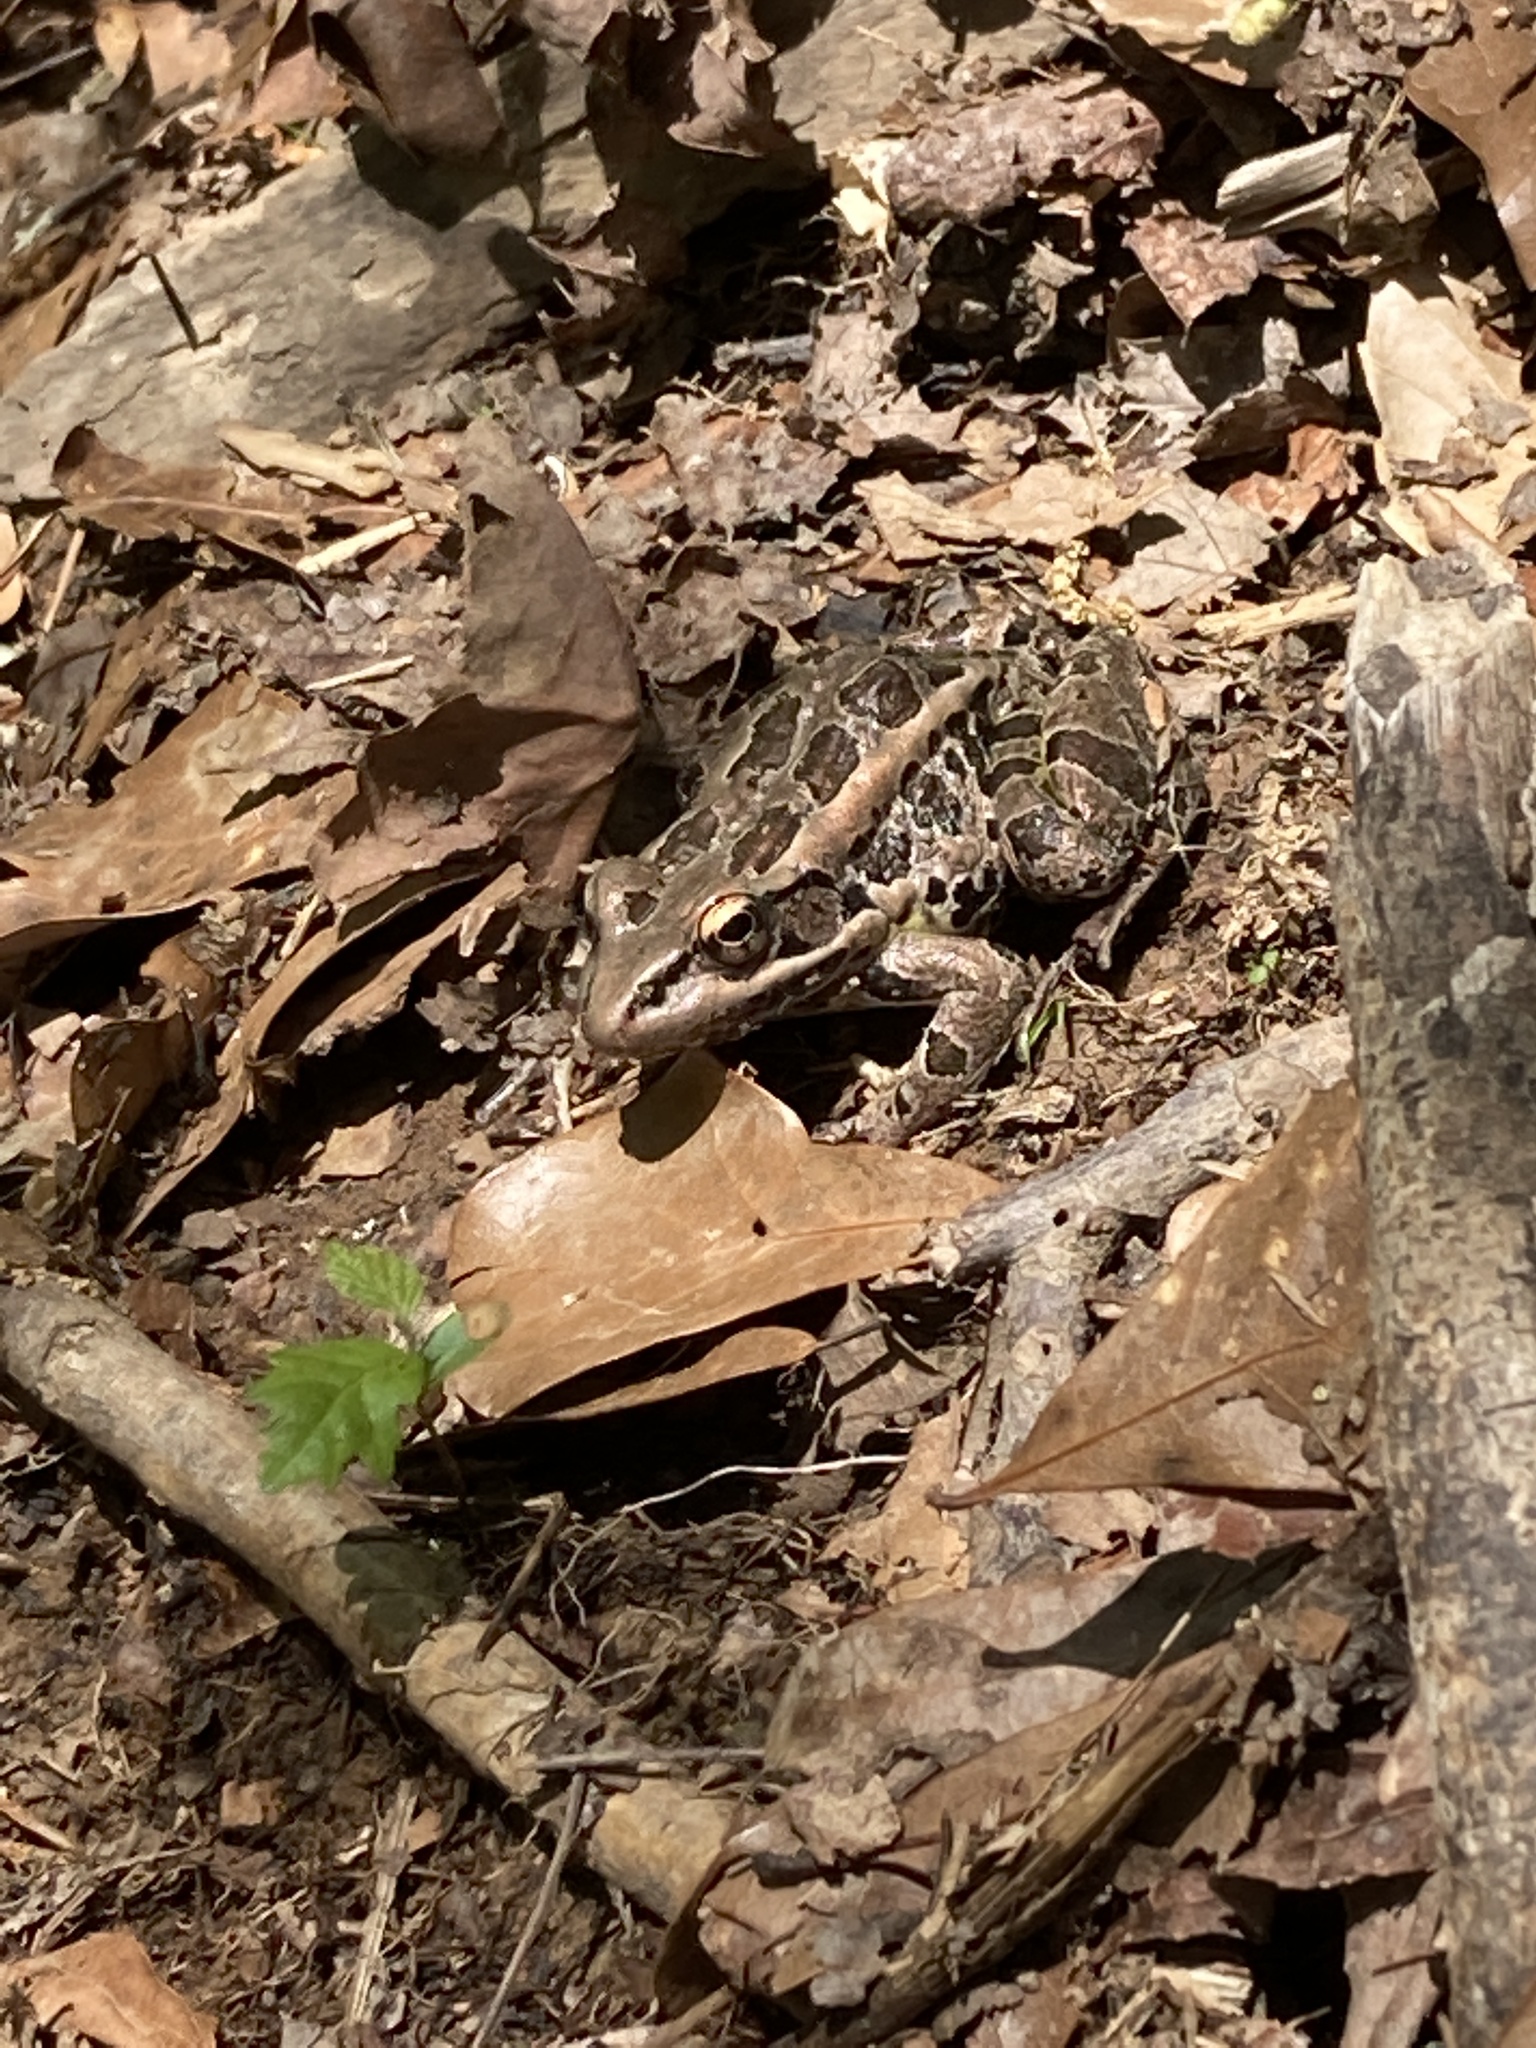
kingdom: Animalia
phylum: Chordata
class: Amphibia
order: Anura
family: Ranidae
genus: Lithobates
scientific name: Lithobates palustris
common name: Pickerel frog
